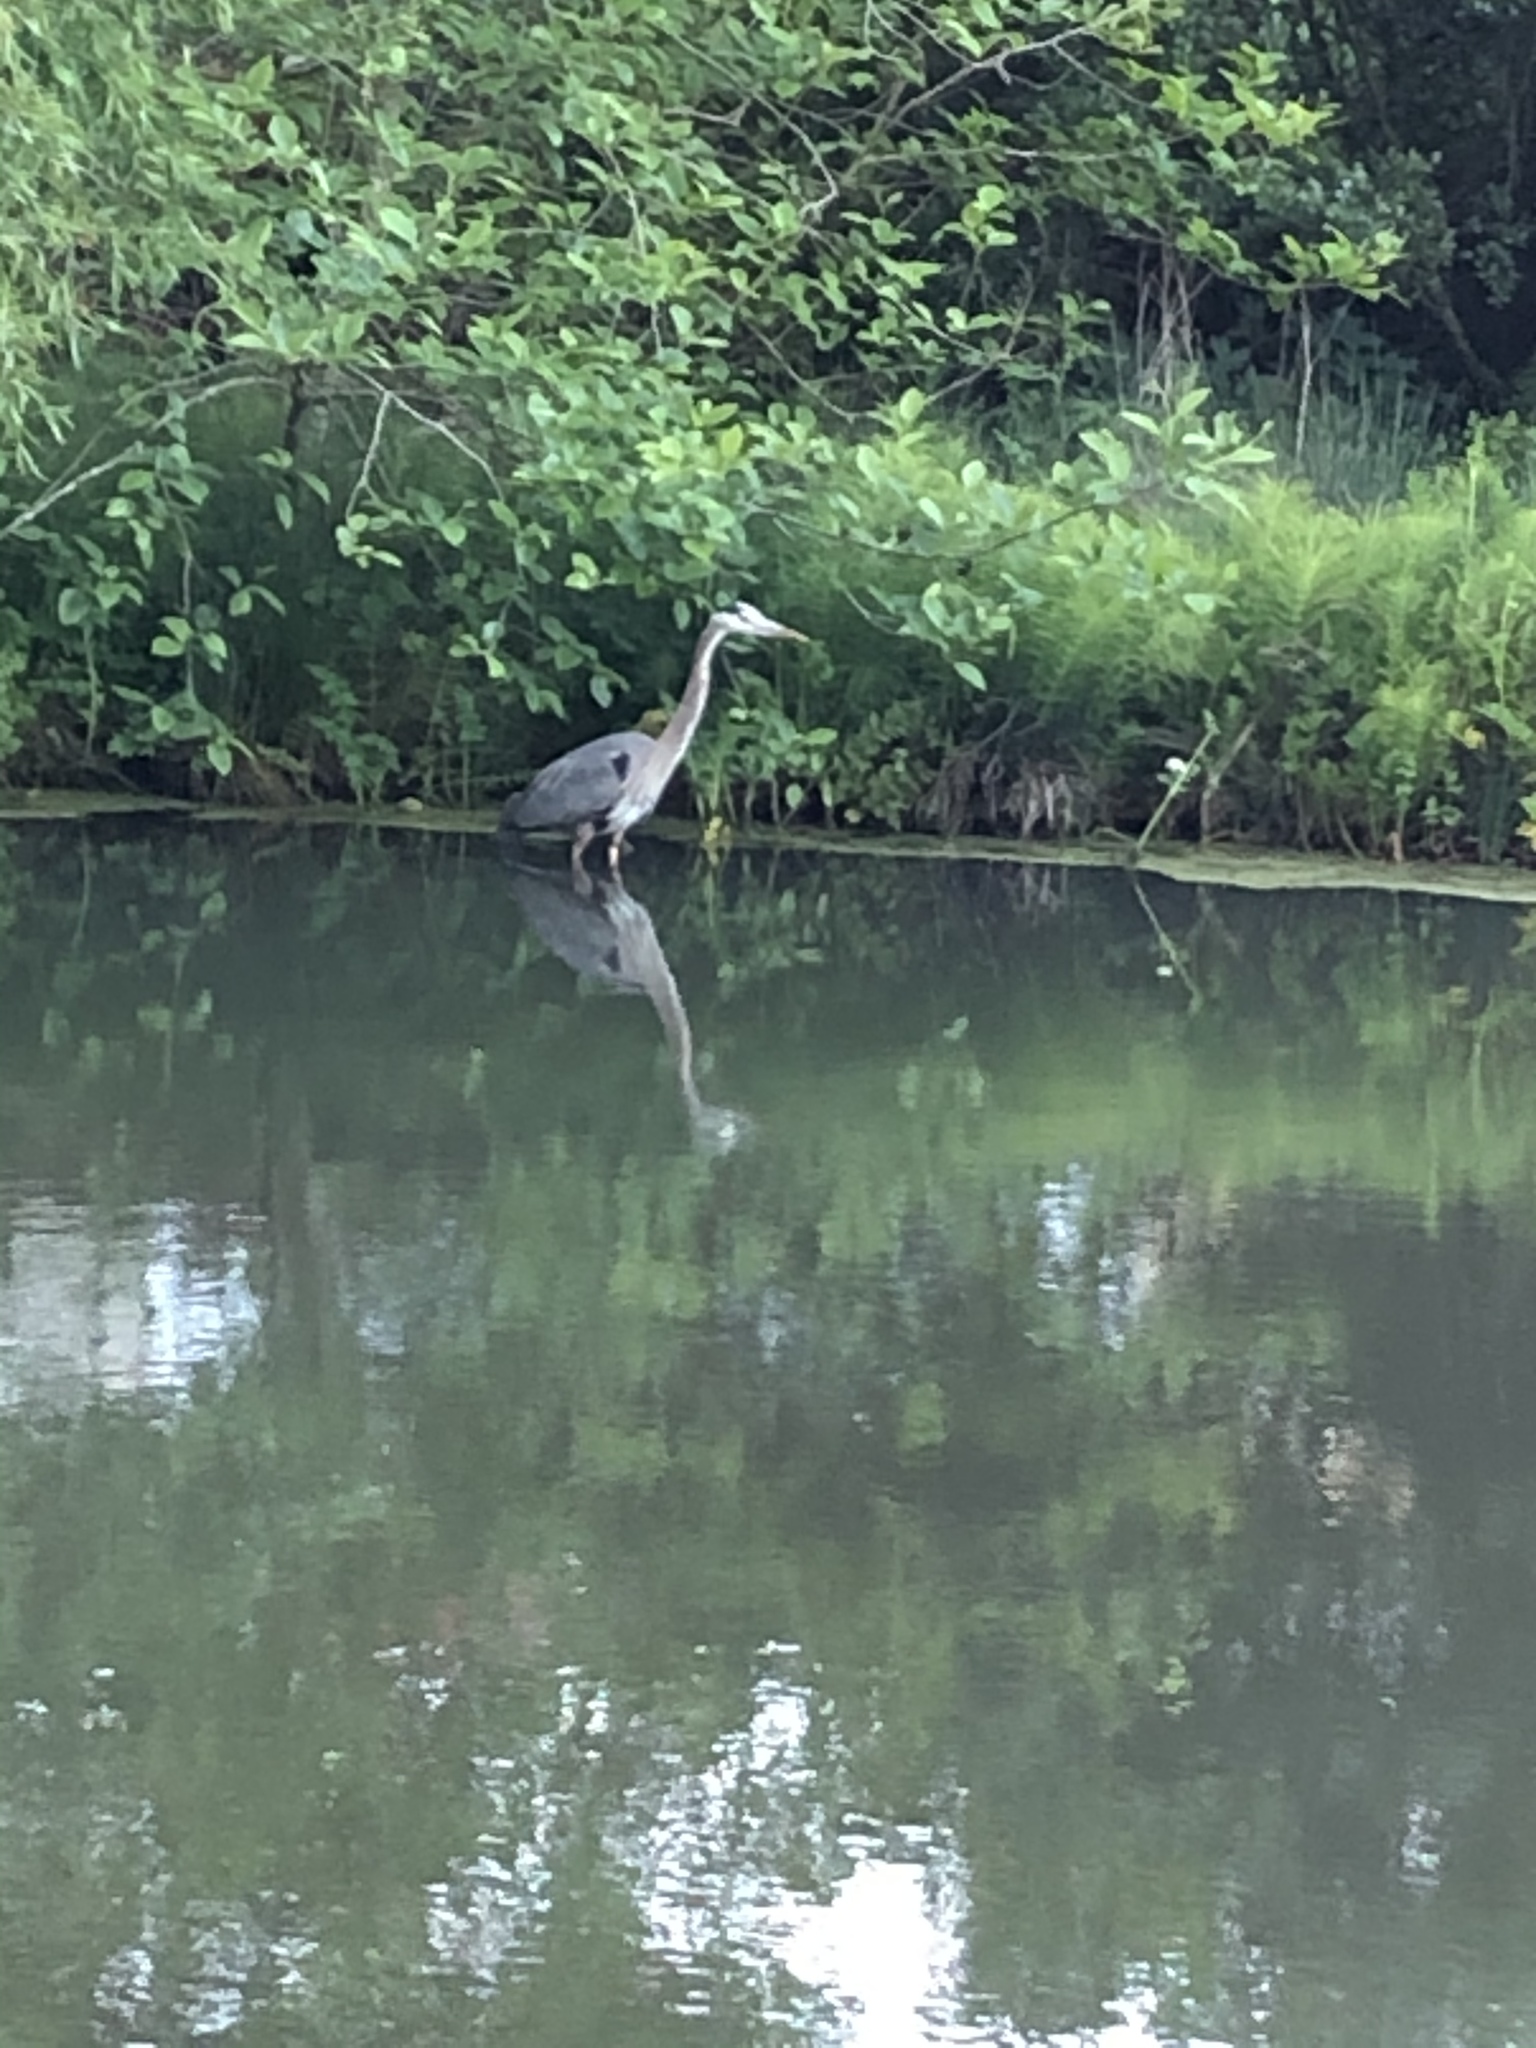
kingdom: Animalia
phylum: Chordata
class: Aves
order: Pelecaniformes
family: Ardeidae
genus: Ardea
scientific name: Ardea herodias
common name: Great blue heron
